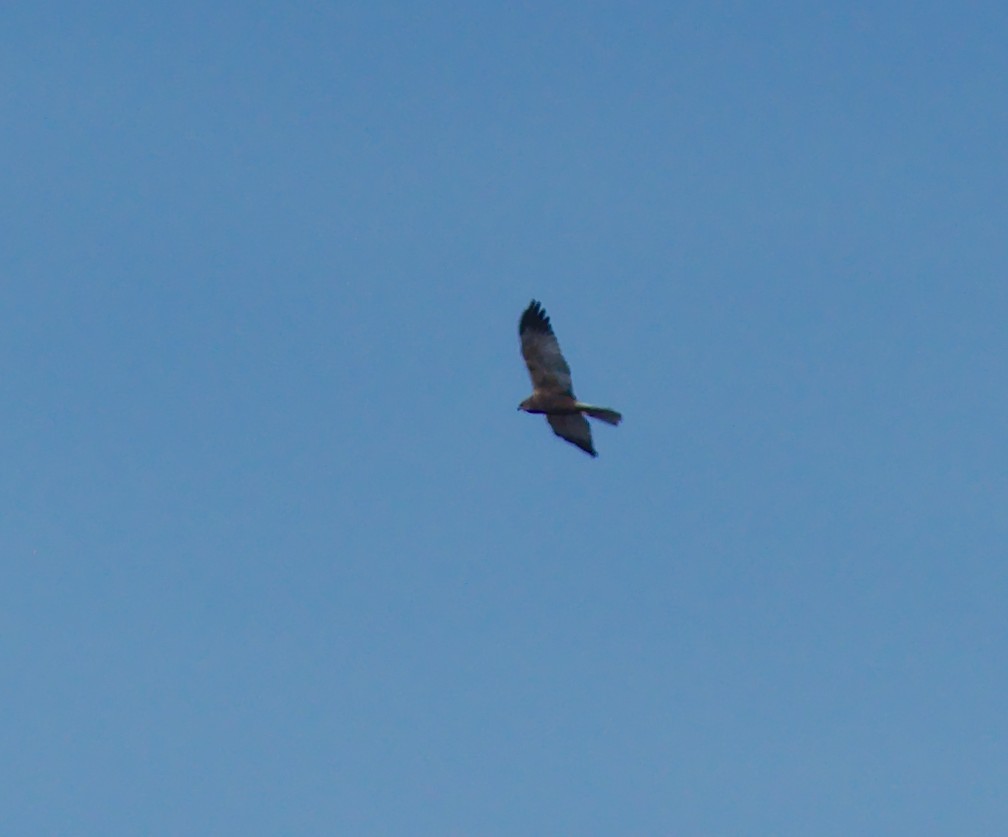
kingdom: Animalia
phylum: Chordata
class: Aves
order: Accipitriformes
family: Accipitridae
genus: Circus
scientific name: Circus aeruginosus
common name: Western marsh harrier
